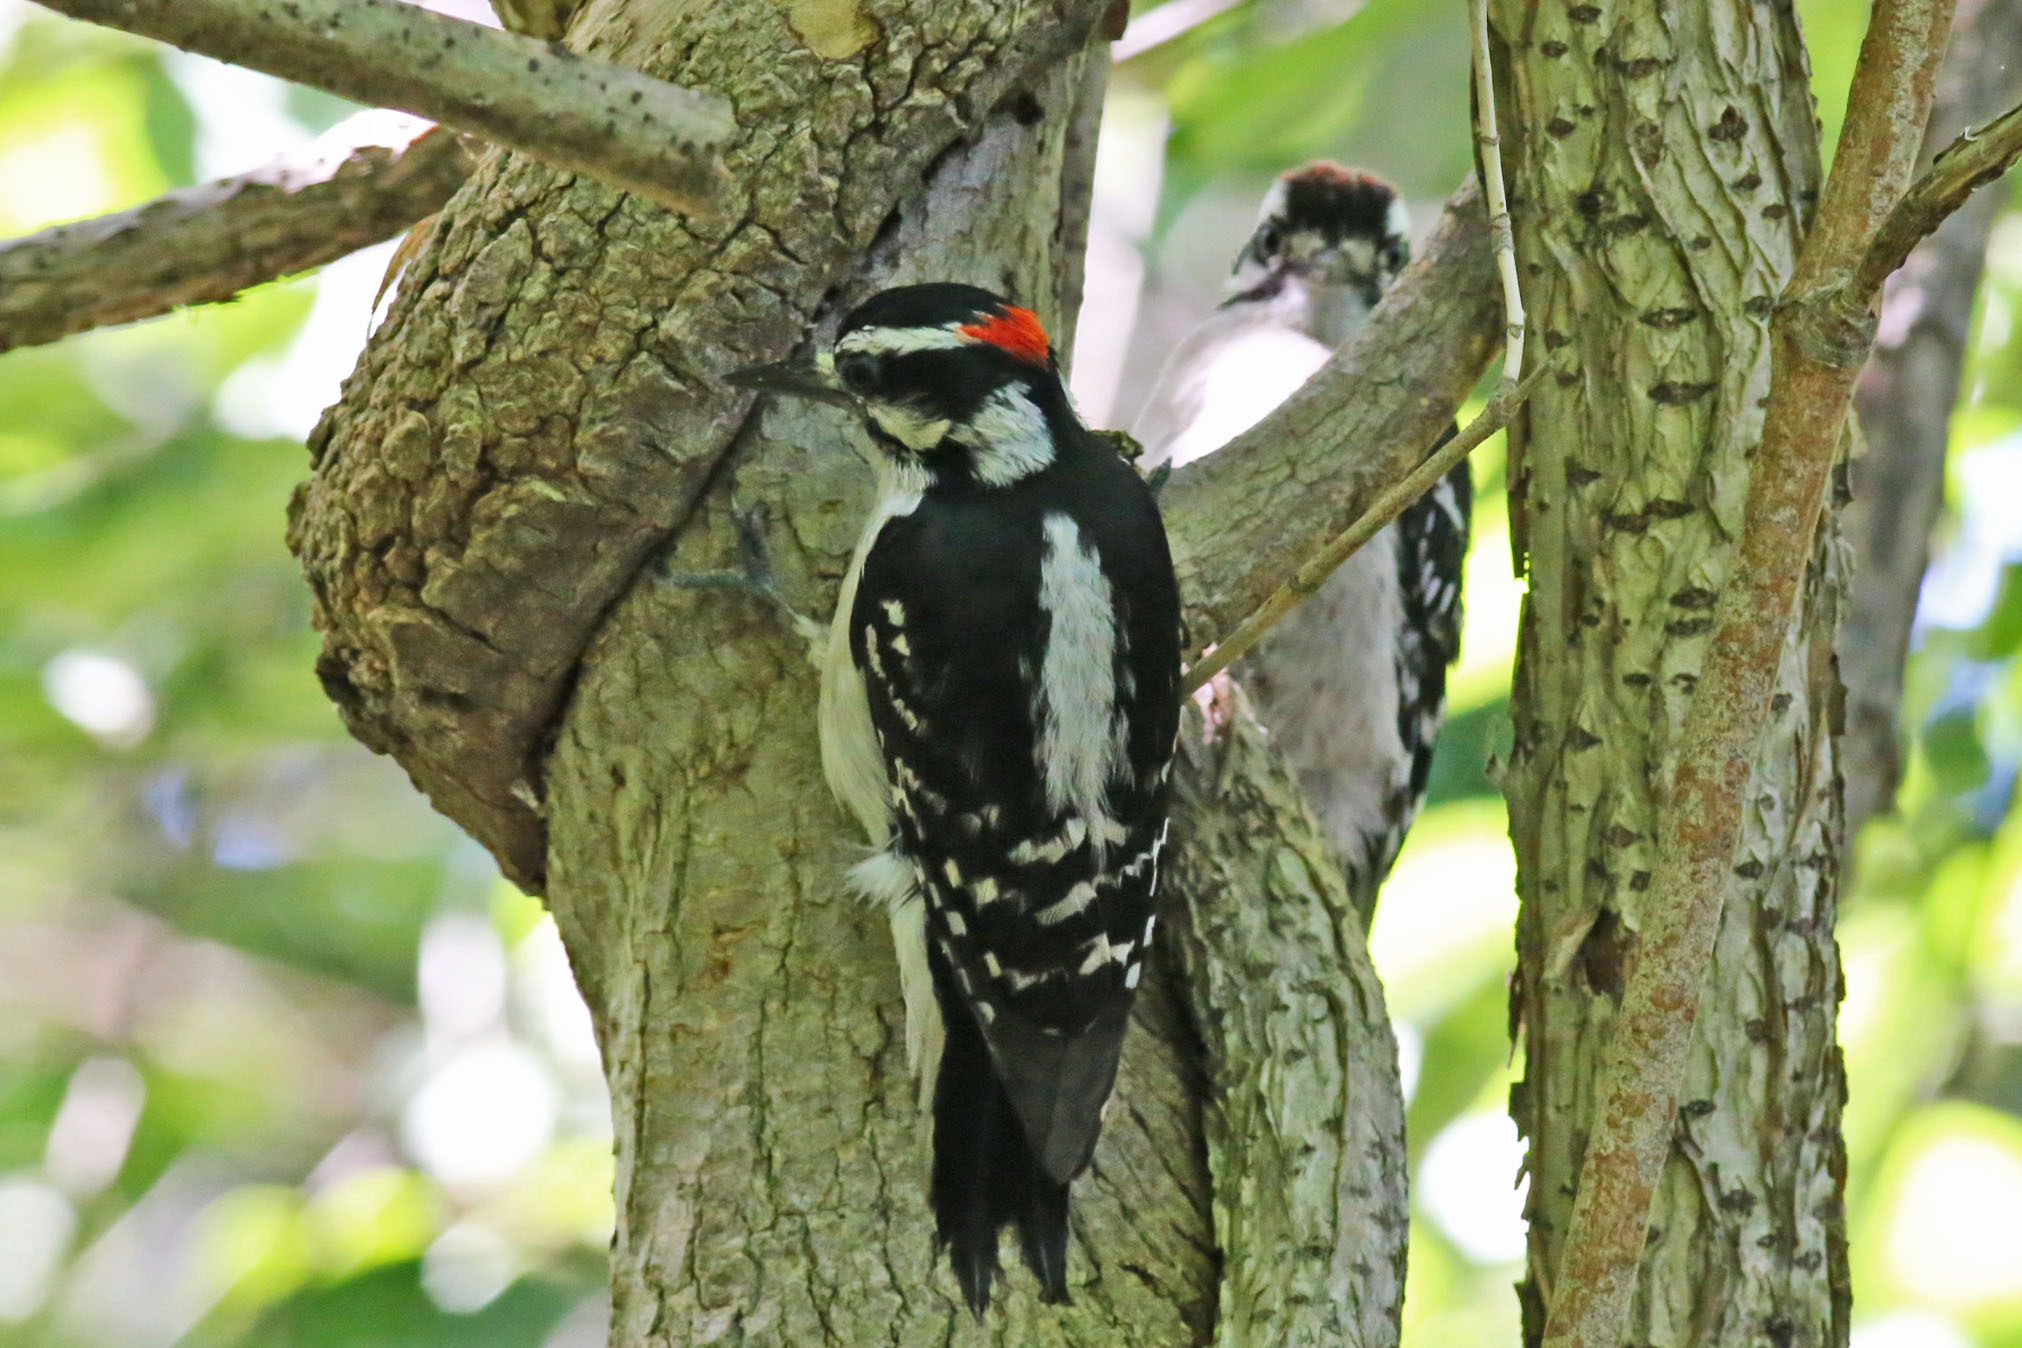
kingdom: Animalia
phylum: Chordata
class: Aves
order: Piciformes
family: Picidae
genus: Dryobates
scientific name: Dryobates pubescens
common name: Downy woodpecker
